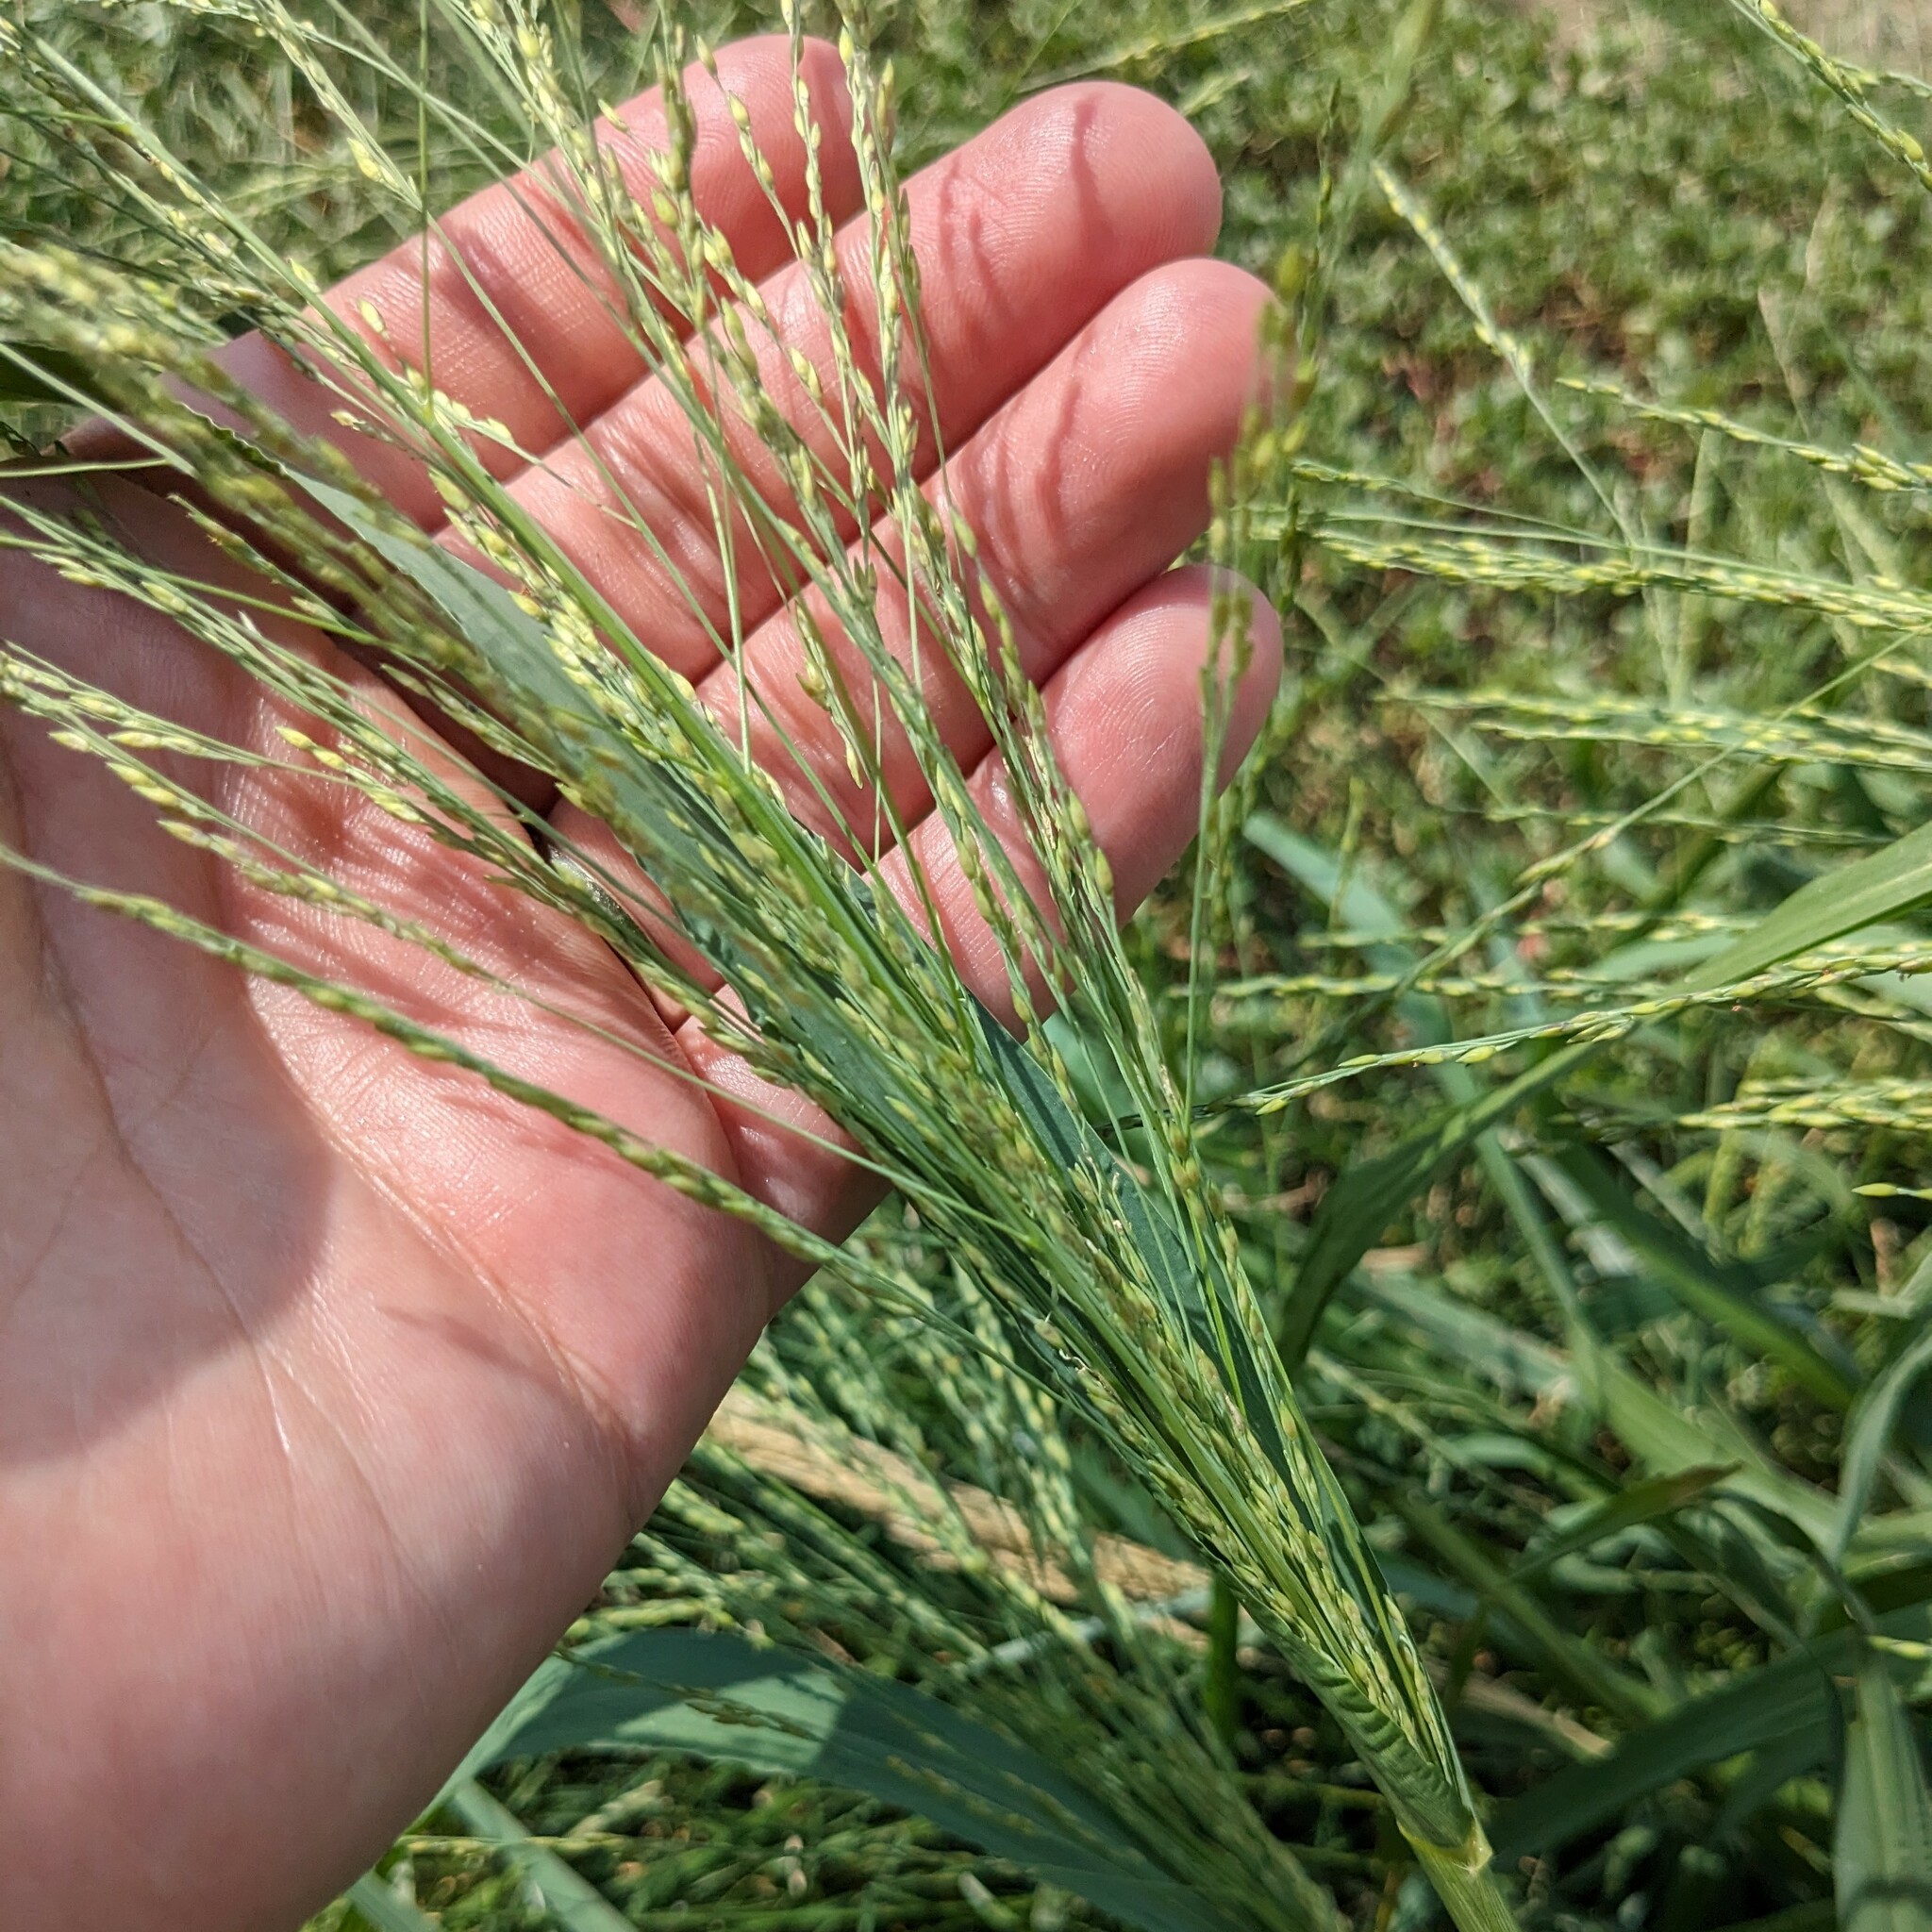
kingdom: Plantae
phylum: Tracheophyta
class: Liliopsida
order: Poales
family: Poaceae
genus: Panicum
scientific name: Panicum dichotomiflorum
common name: Autumn millet
